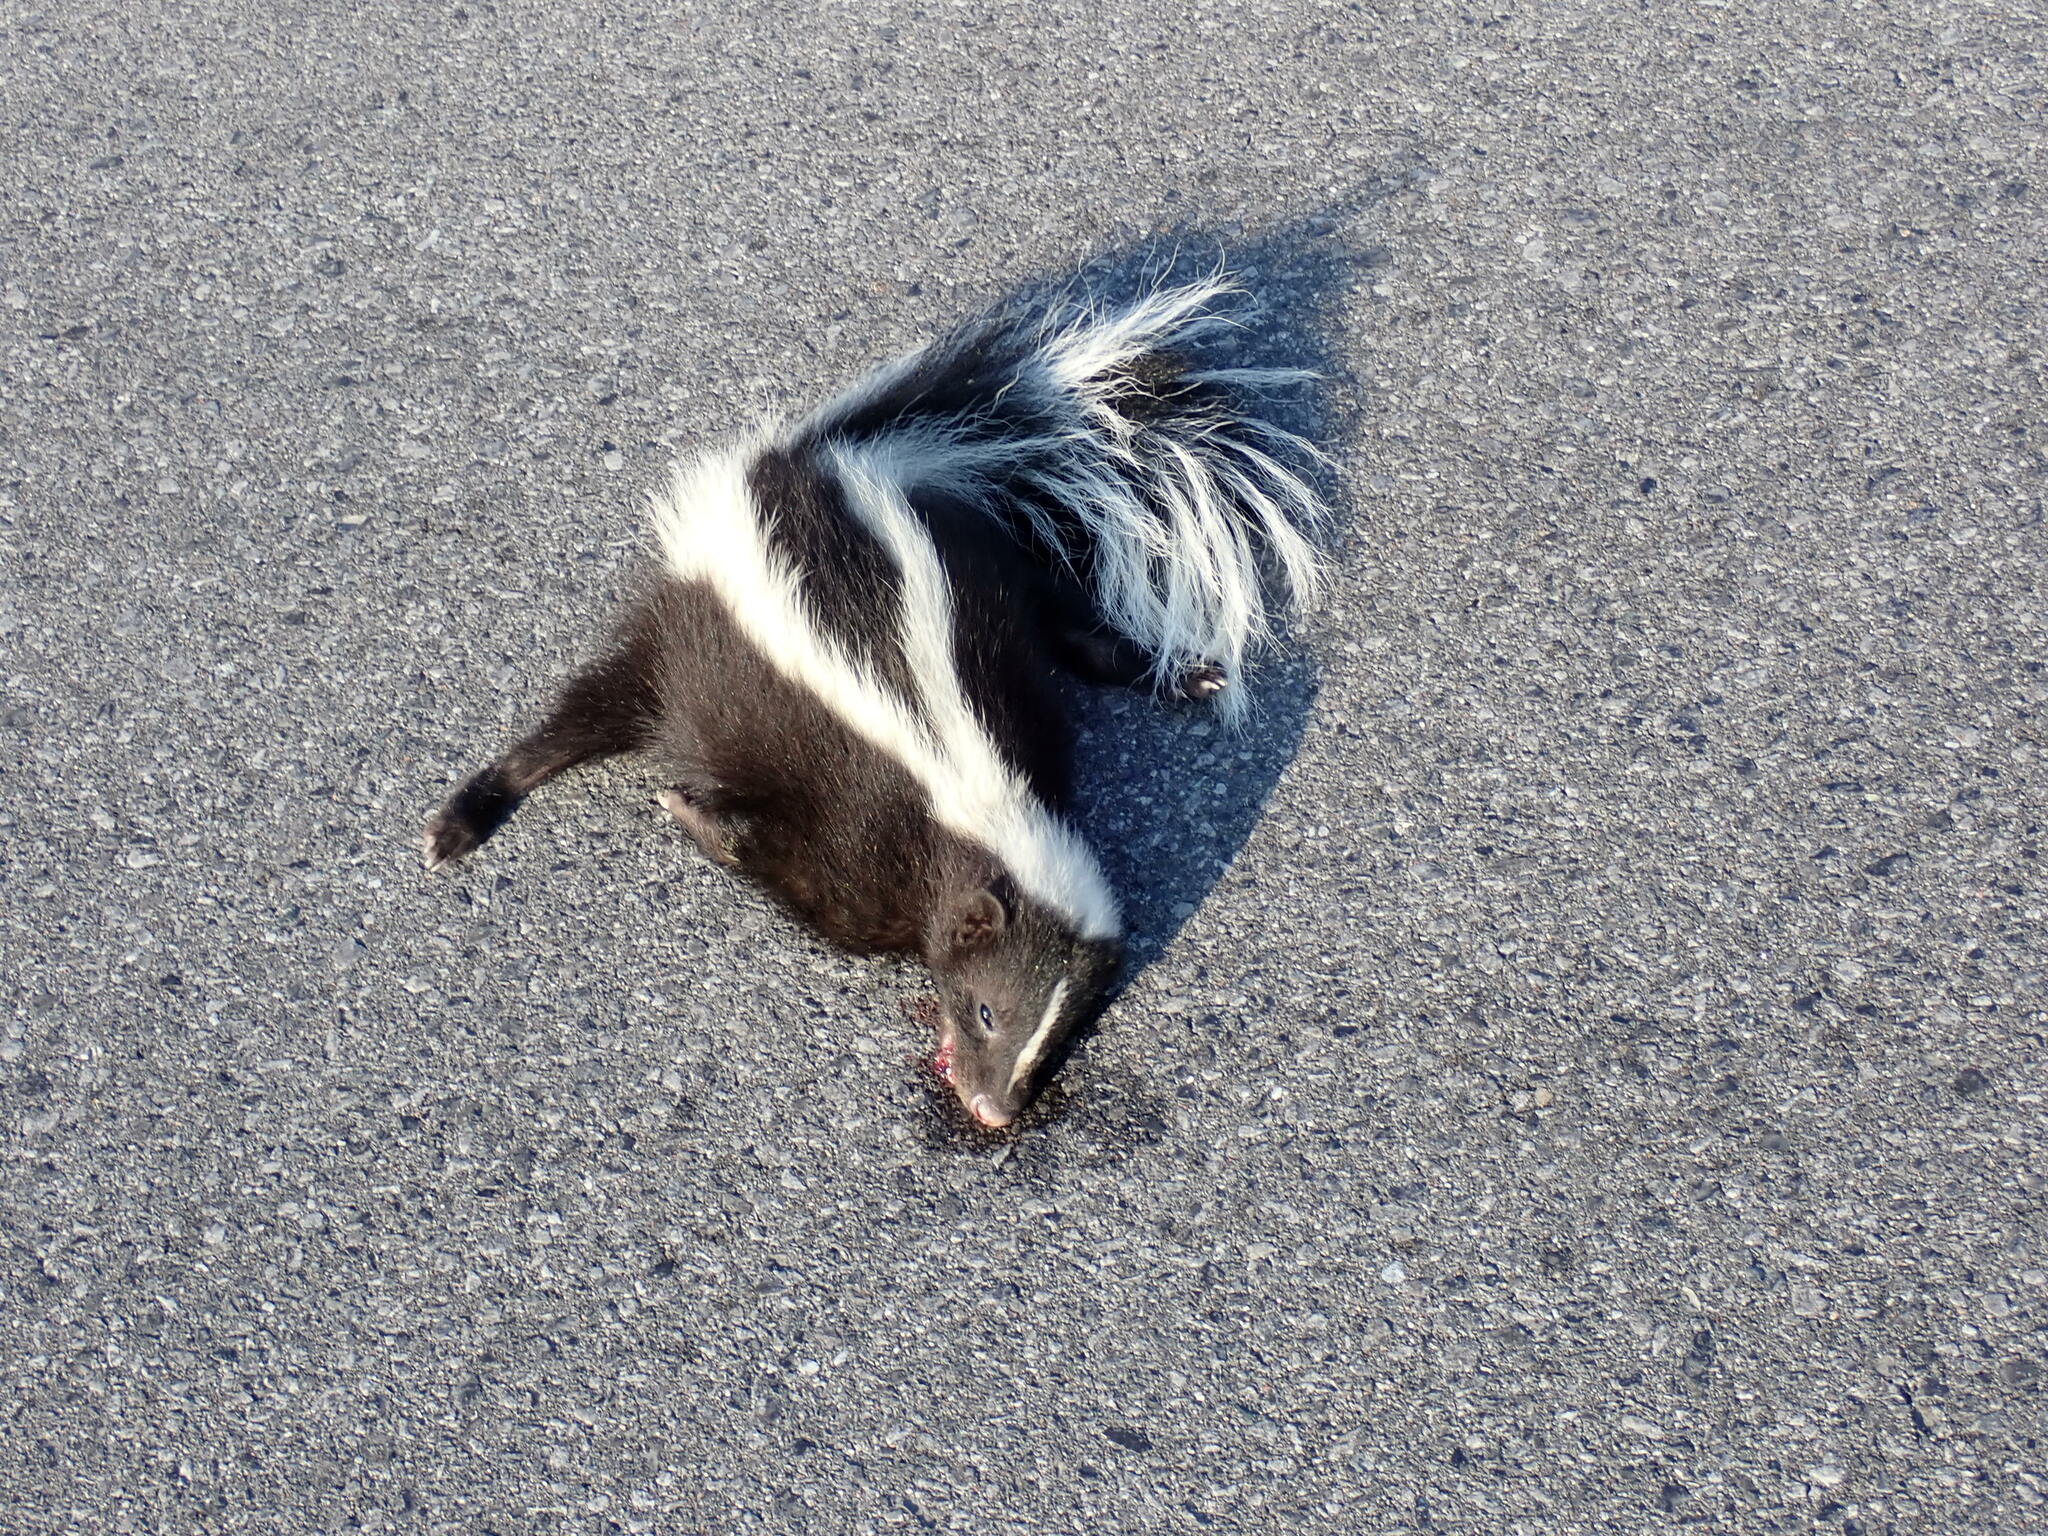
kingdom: Animalia
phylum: Chordata
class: Mammalia
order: Carnivora
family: Mephitidae
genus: Mephitis
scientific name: Mephitis mephitis
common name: Striped skunk
